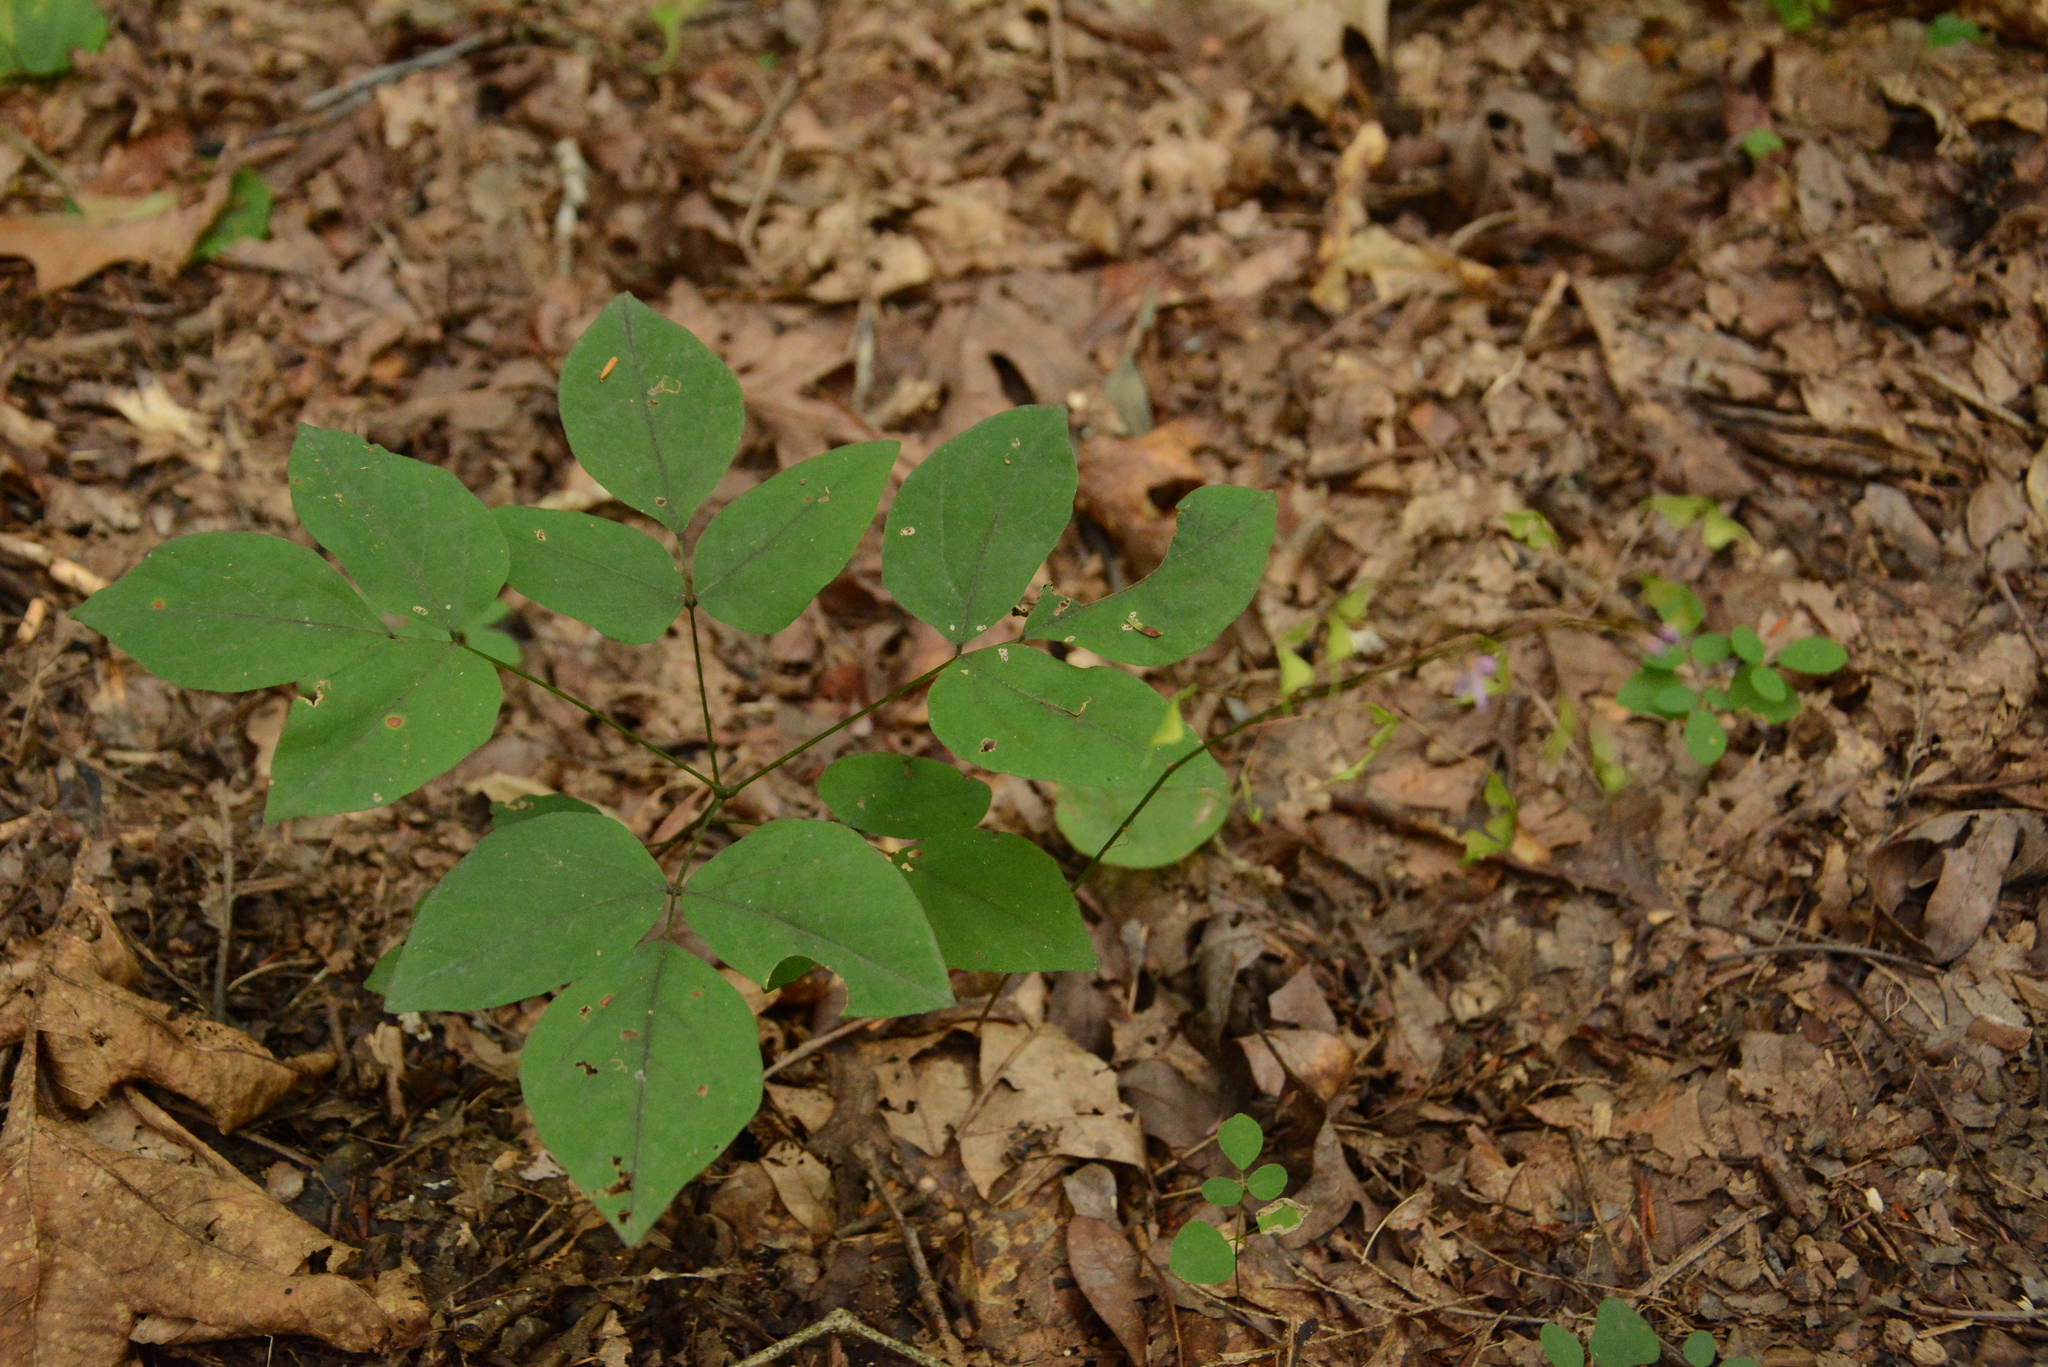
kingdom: Plantae
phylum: Tracheophyta
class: Magnoliopsida
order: Fabales
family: Fabaceae
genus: Hylodesmum
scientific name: Hylodesmum nudiflorum
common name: Bare-stemmed tick-trefoil
